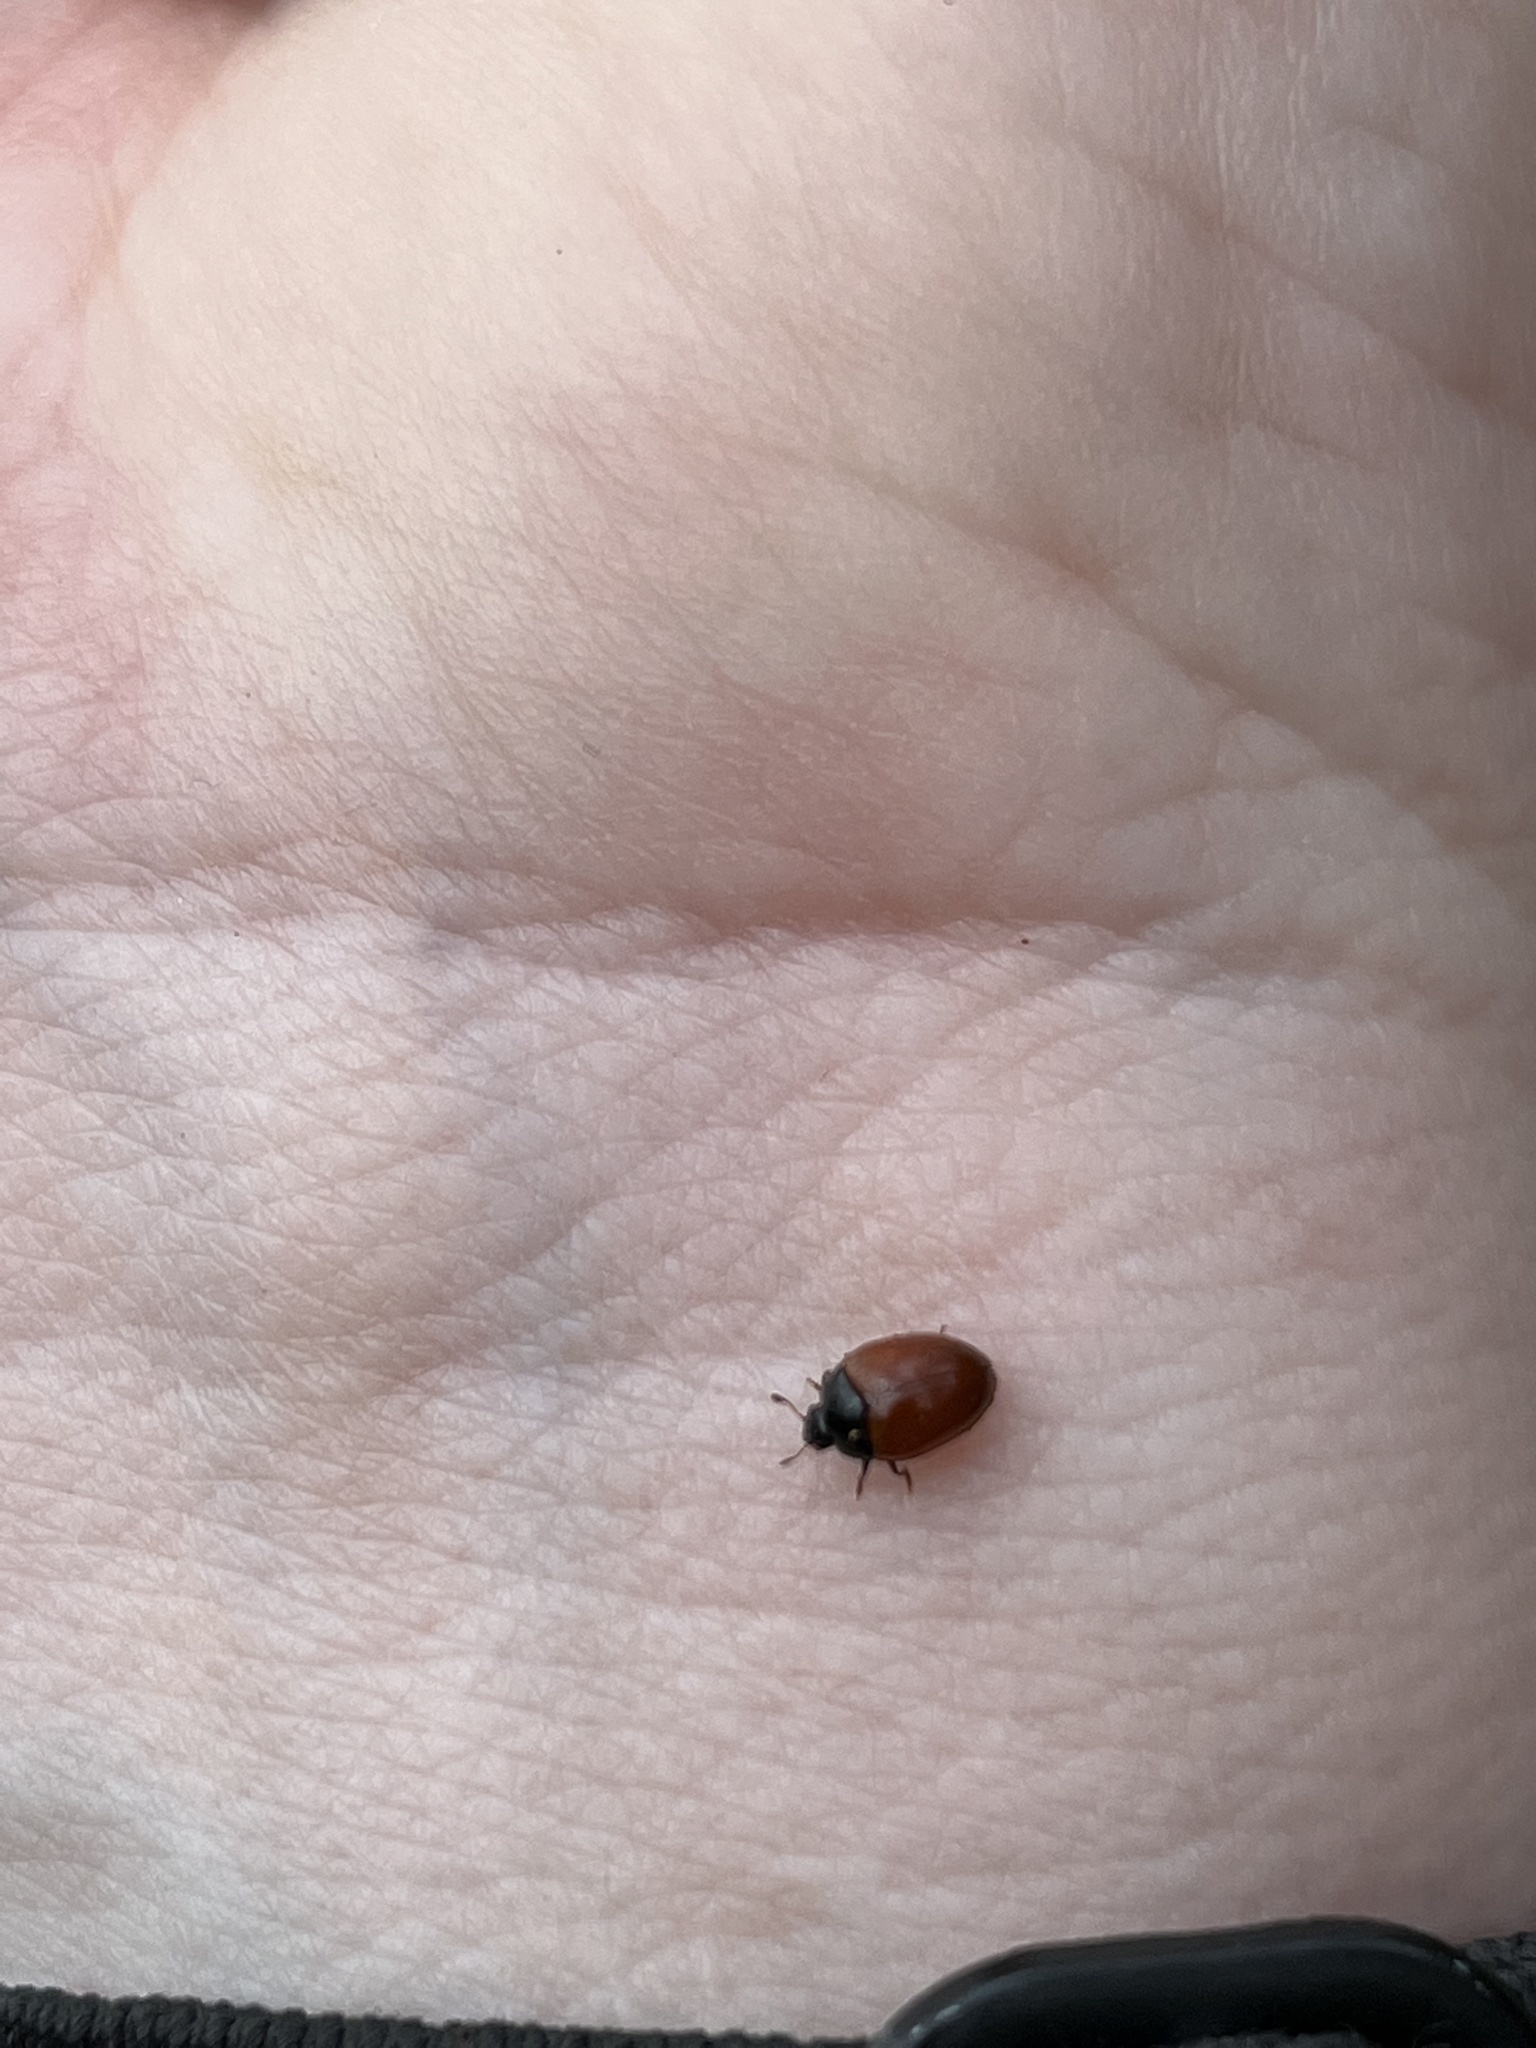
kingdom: Animalia
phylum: Arthropoda
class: Insecta
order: Coleoptera
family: Erotylidae
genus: Tritoma
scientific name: Tritoma sanguinipennis
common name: Red-winged tritoma
